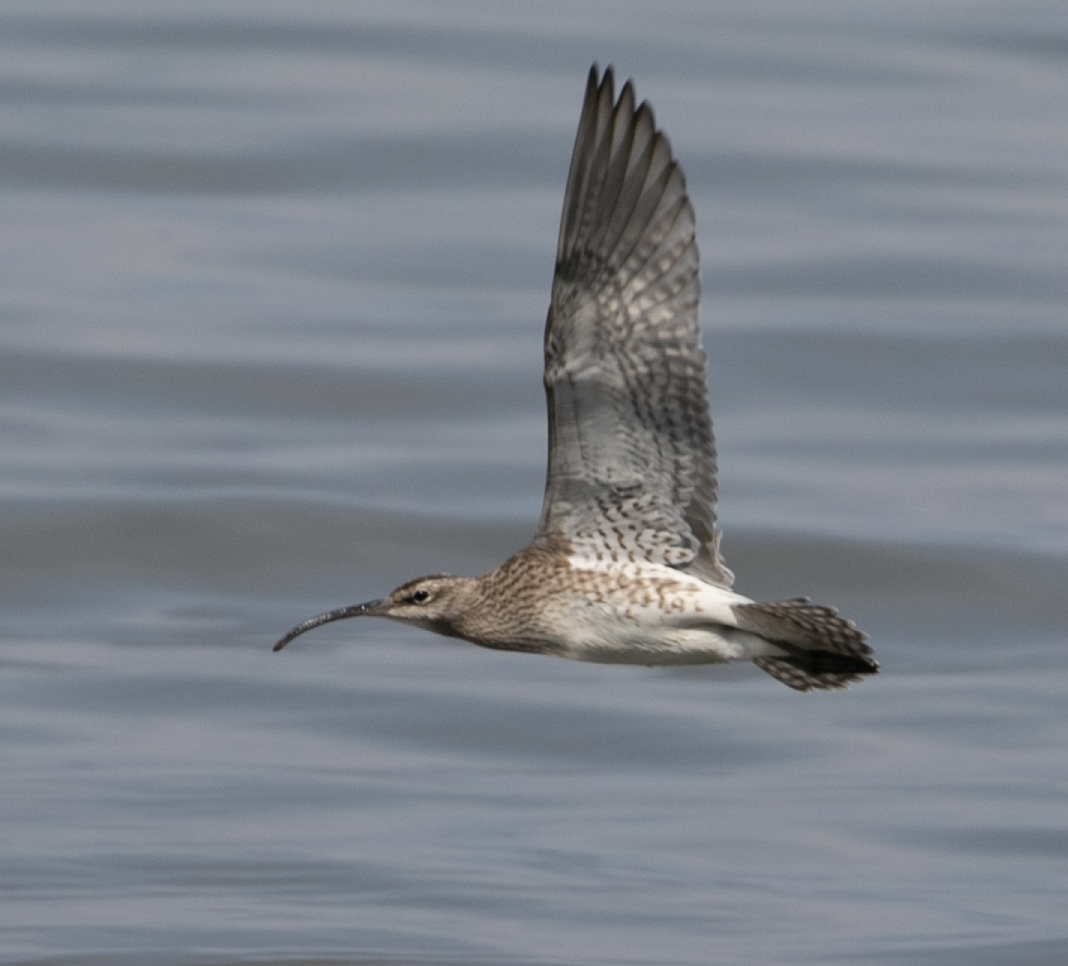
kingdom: Animalia
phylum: Chordata
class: Aves
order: Charadriiformes
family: Scolopacidae
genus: Numenius
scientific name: Numenius phaeopus
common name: Whimbrel
